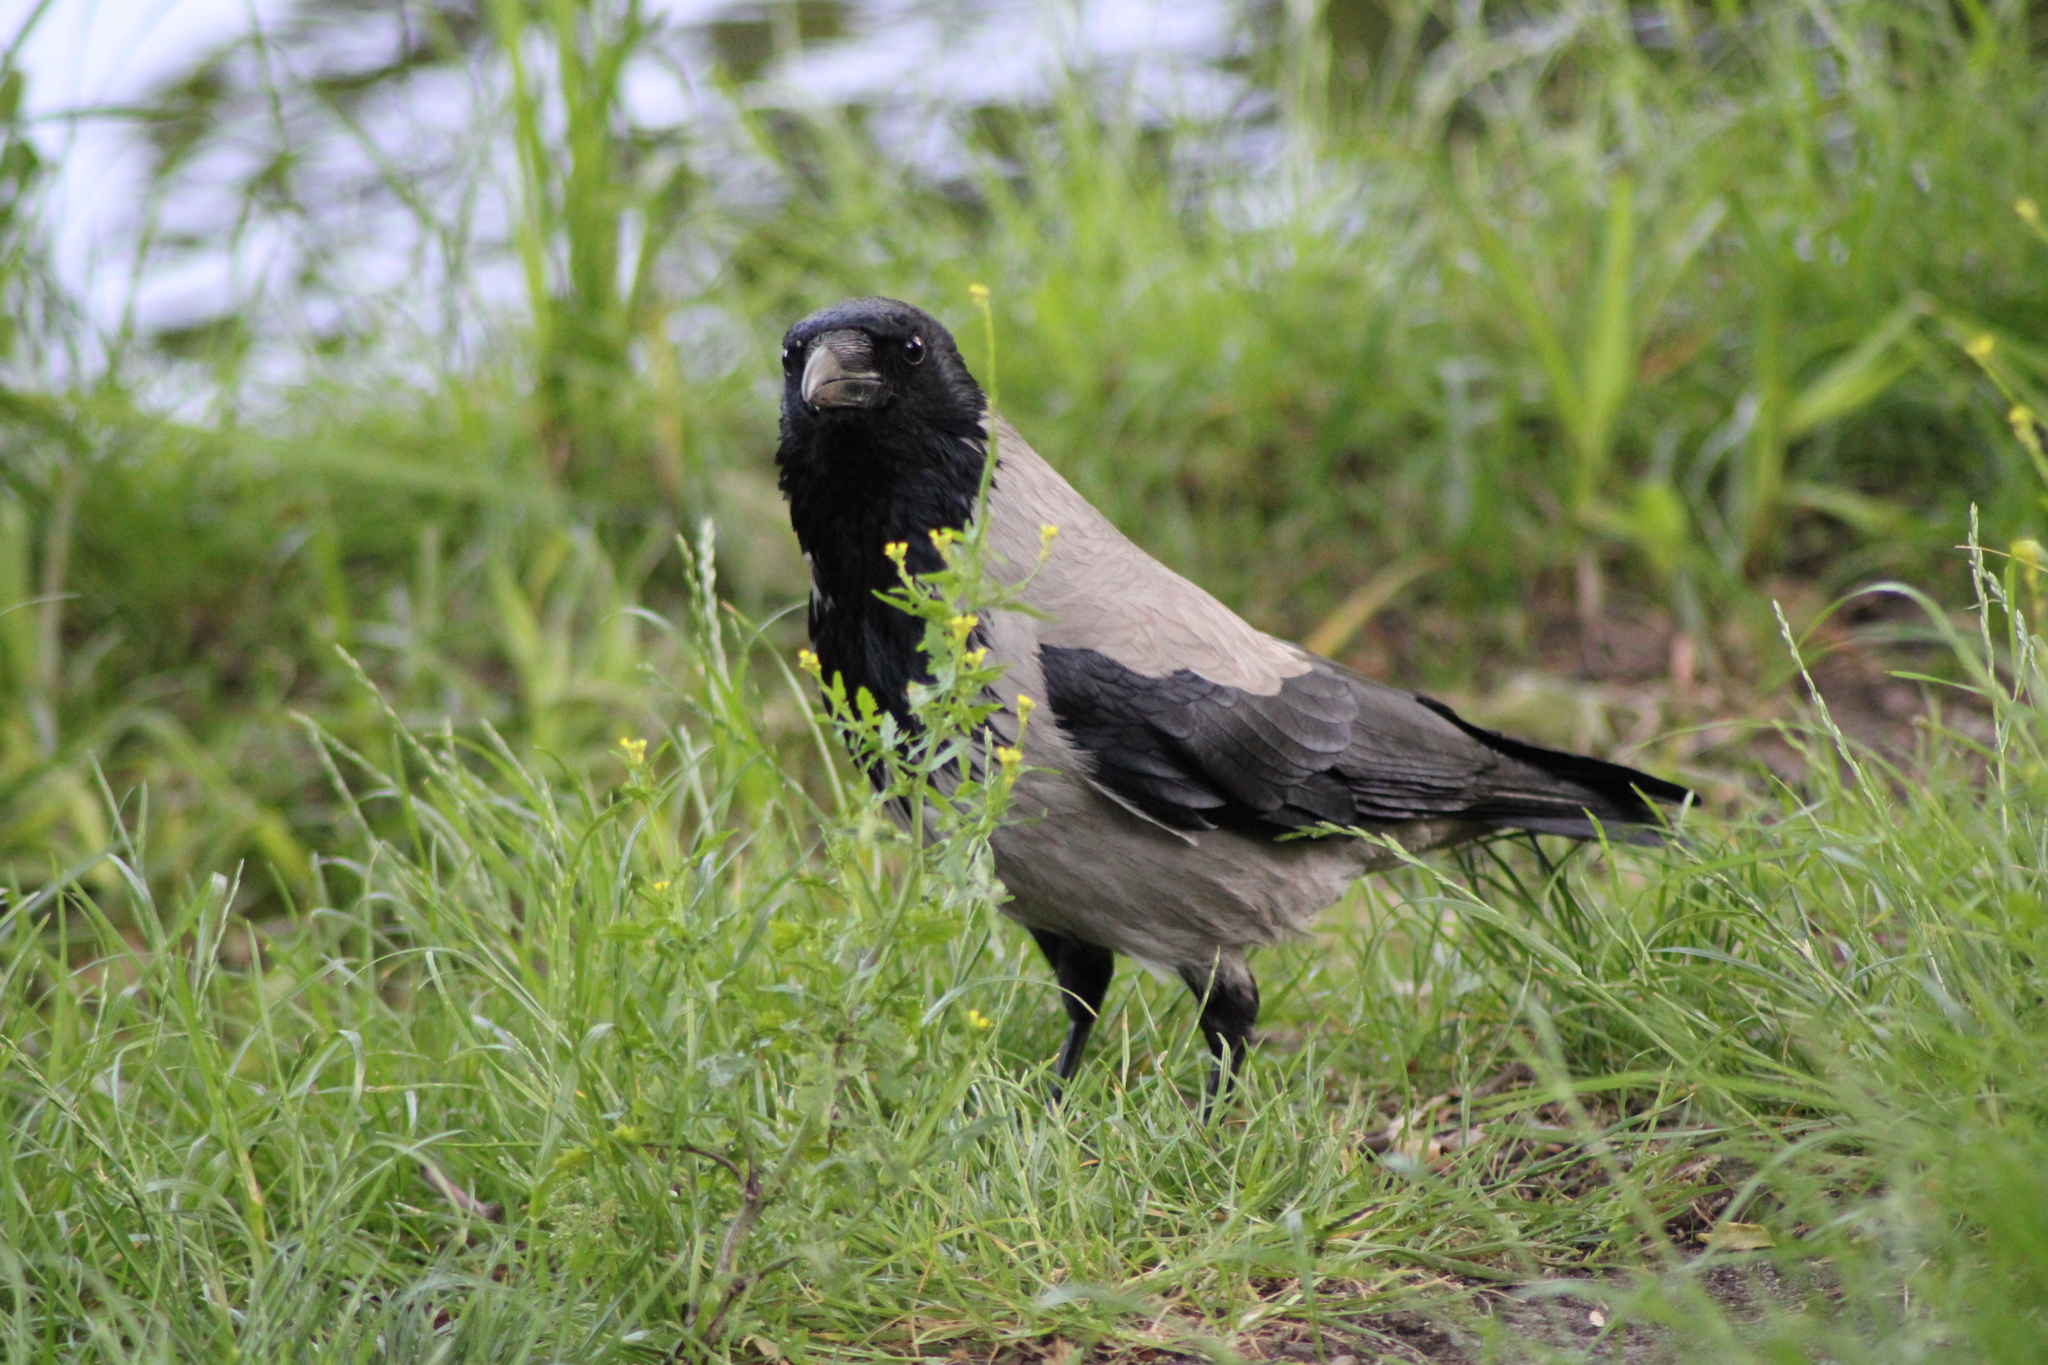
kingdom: Animalia
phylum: Chordata
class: Aves
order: Passeriformes
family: Corvidae
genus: Corvus
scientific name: Corvus cornix
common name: Hooded crow
